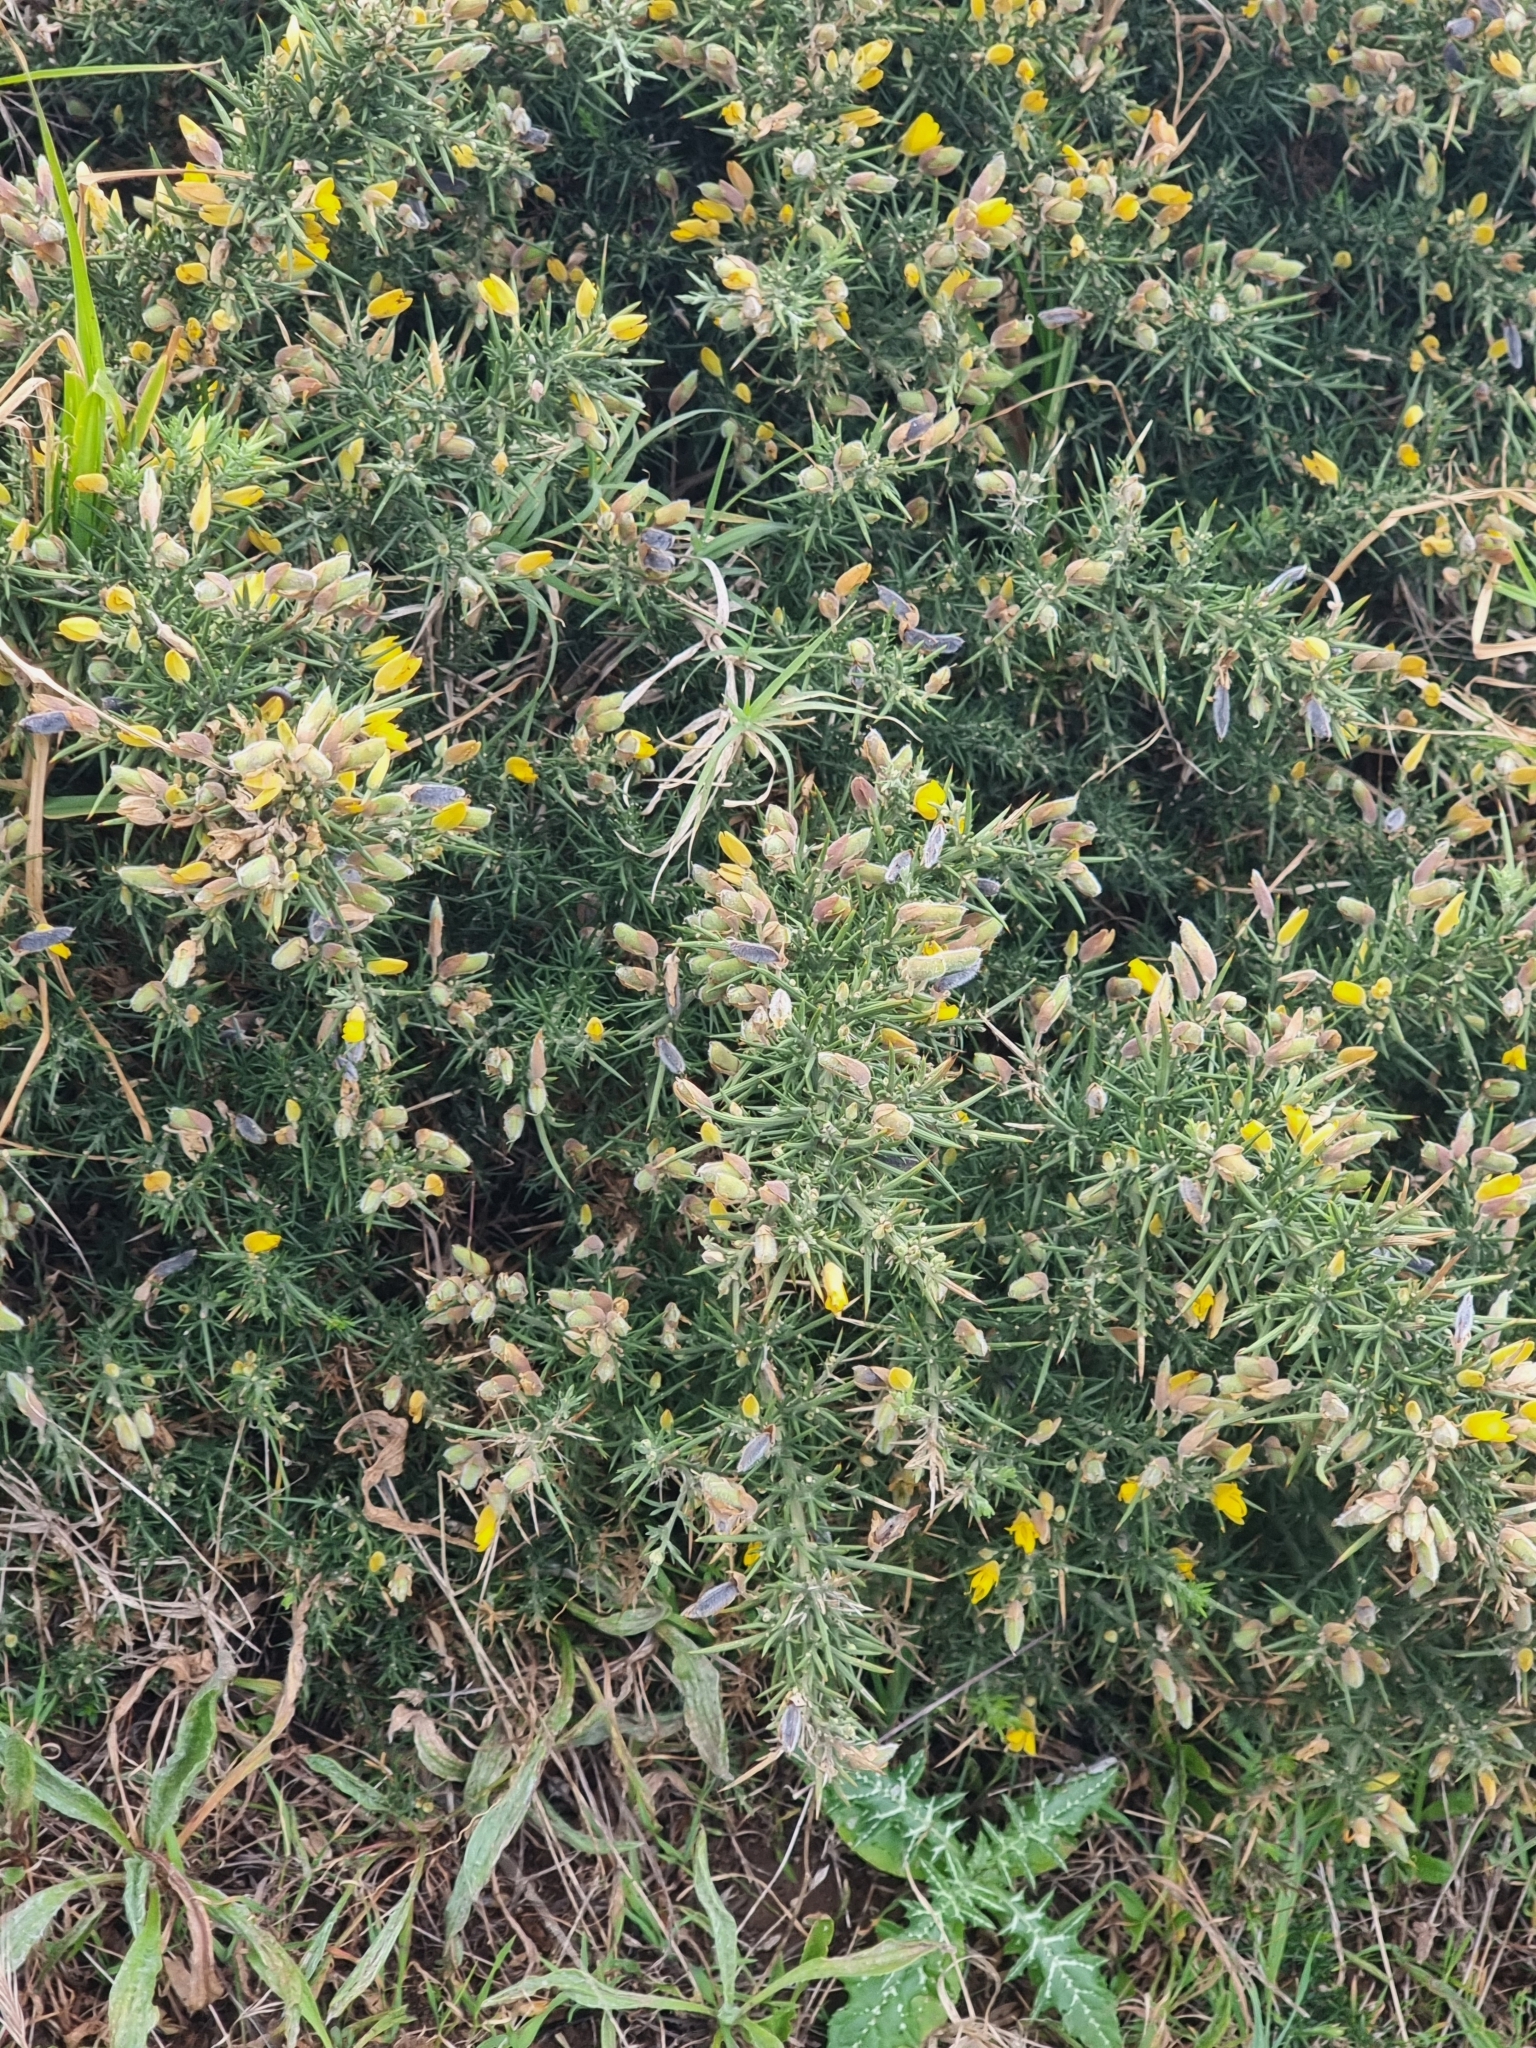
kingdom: Plantae
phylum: Tracheophyta
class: Magnoliopsida
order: Fabales
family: Fabaceae
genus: Ulex
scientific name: Ulex europaeus
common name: Common gorse
